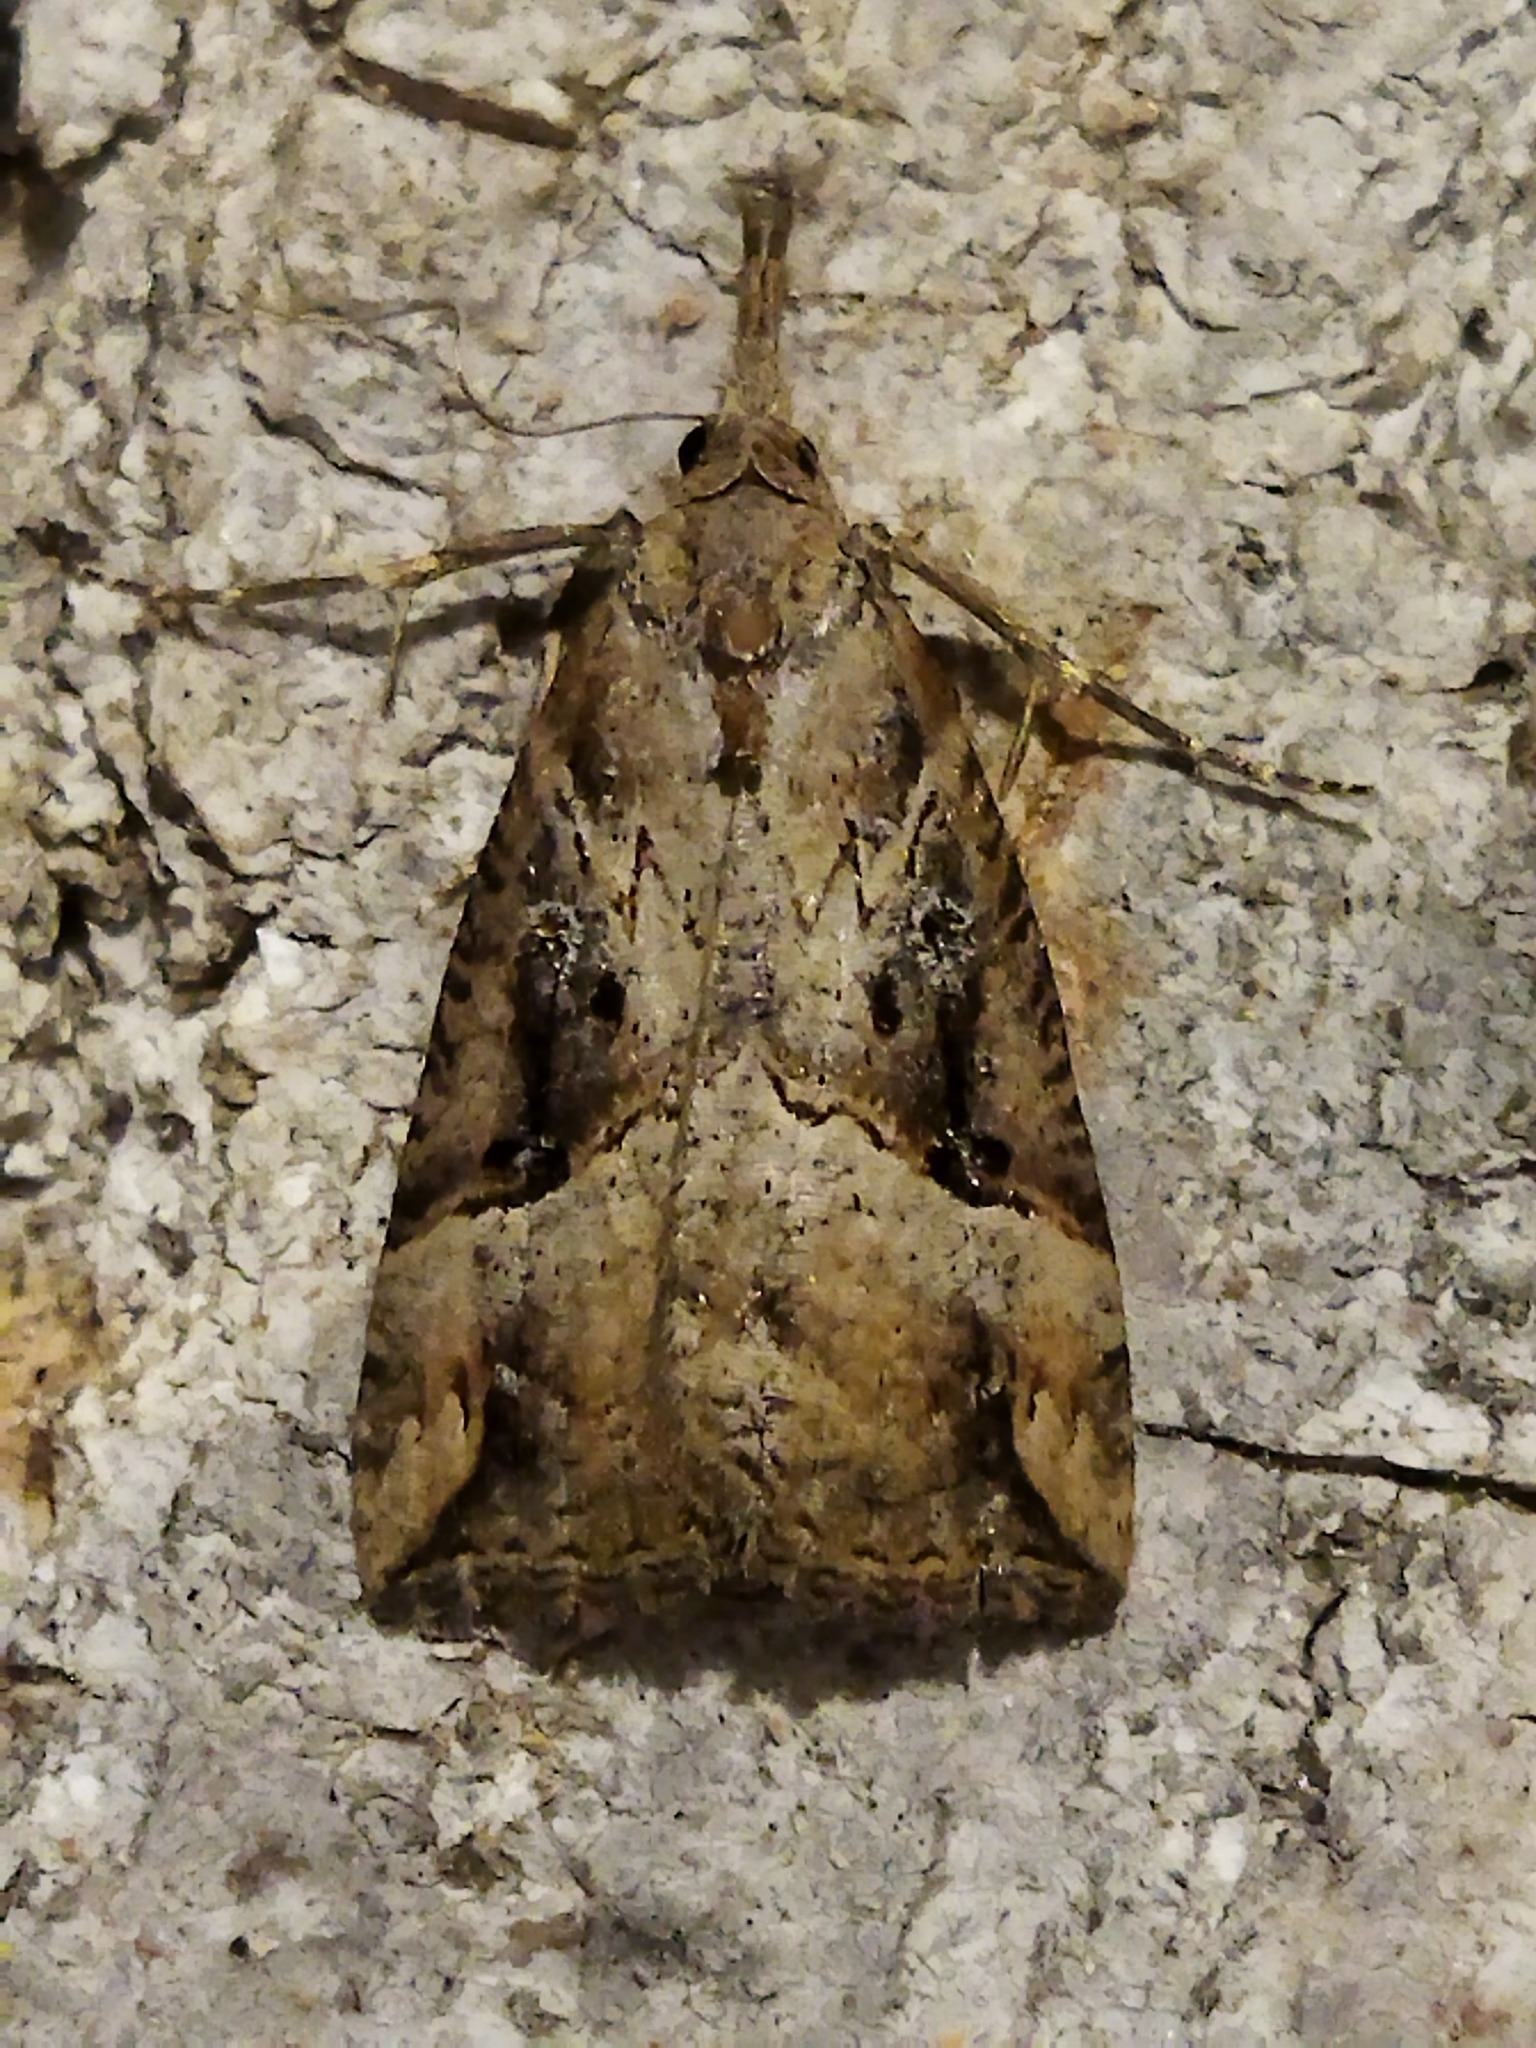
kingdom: Animalia
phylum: Arthropoda
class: Insecta
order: Lepidoptera
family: Erebidae
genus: Hypena
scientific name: Hypena rostralis
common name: Buttoned snout
